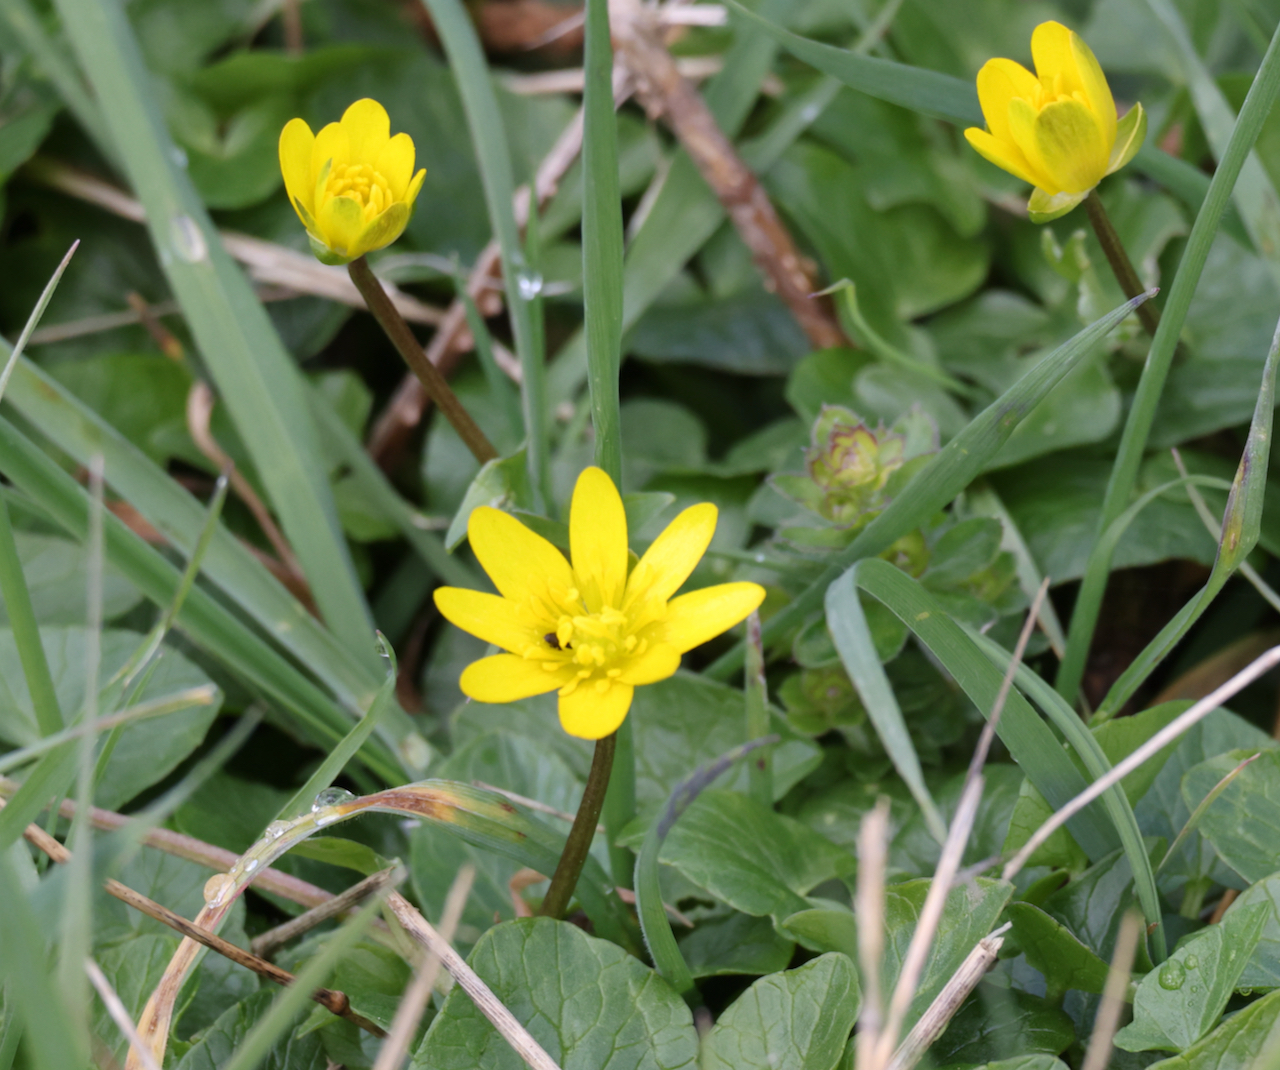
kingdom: Plantae
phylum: Tracheophyta
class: Magnoliopsida
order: Ranunculales
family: Ranunculaceae
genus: Ficaria
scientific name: Ficaria verna
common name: Lesser celandine
